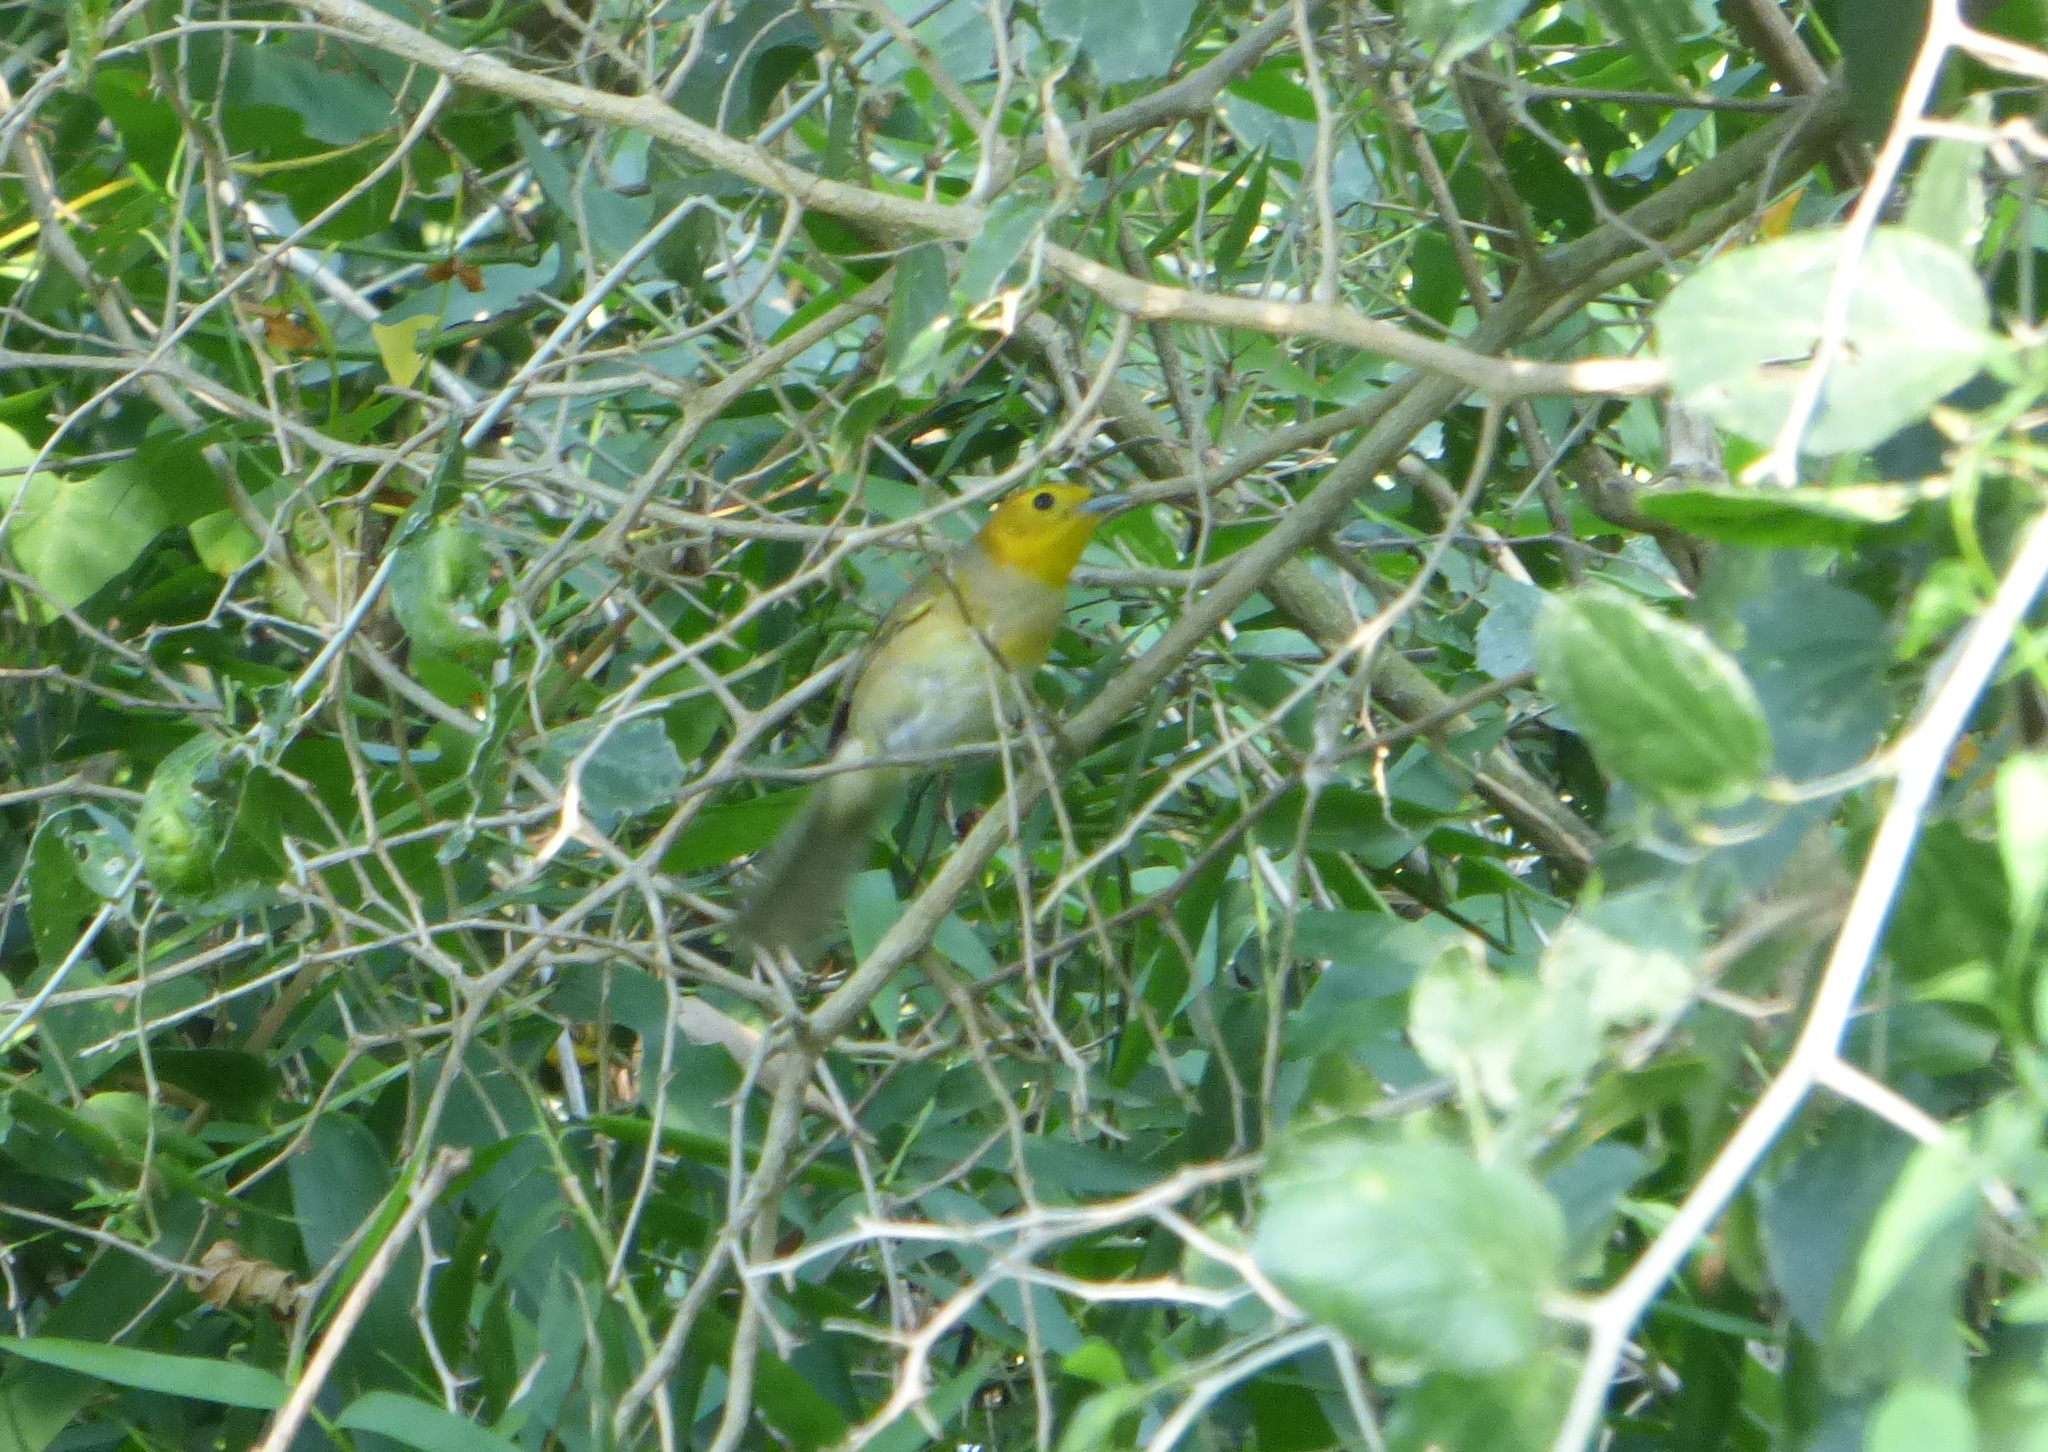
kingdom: Animalia
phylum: Chordata
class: Aves
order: Passeriformes
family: Thraupidae
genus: Thlypopsis
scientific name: Thlypopsis sordida
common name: Orange-headed tanager
